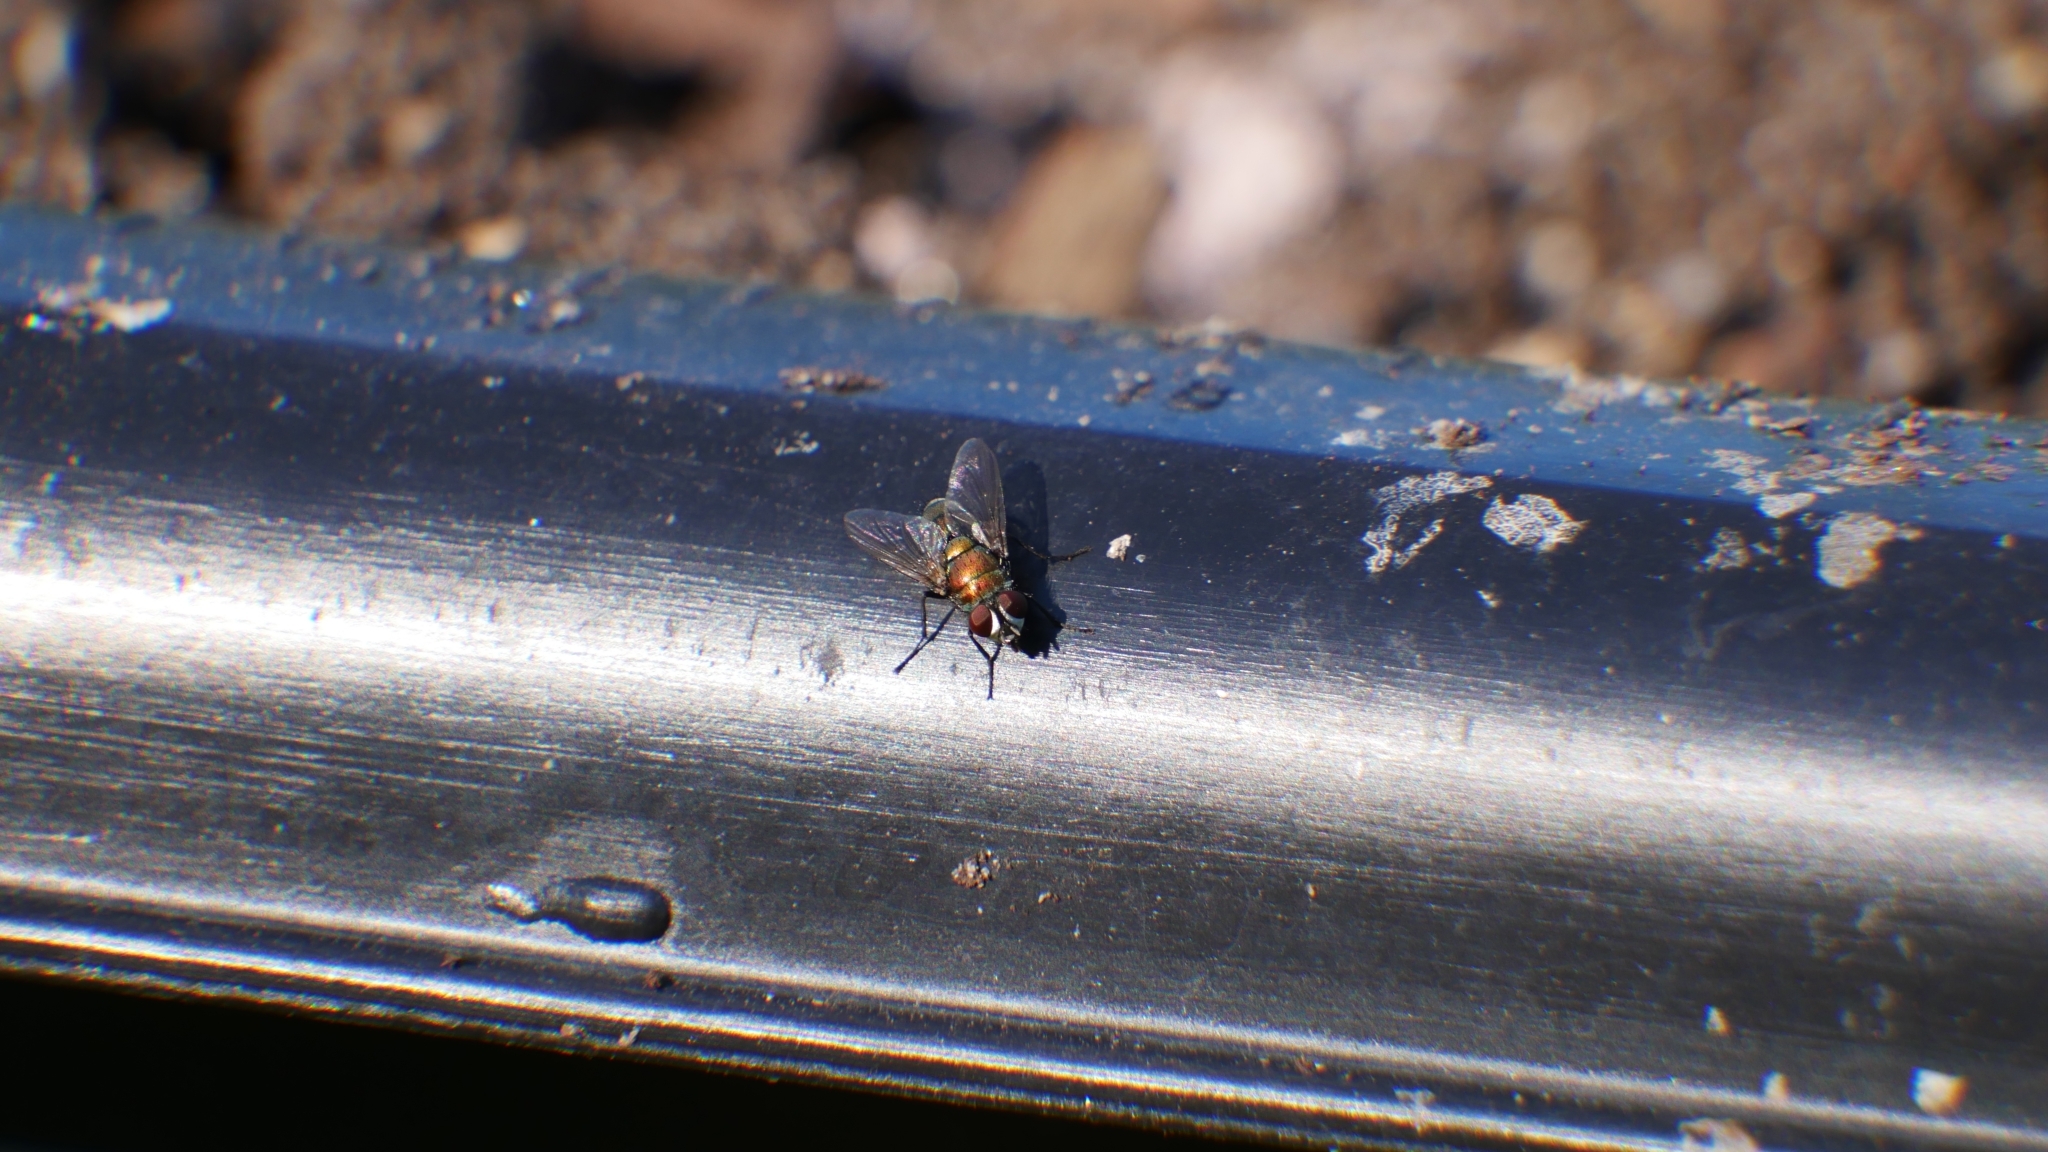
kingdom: Animalia
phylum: Arthropoda
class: Insecta
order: Diptera
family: Calliphoridae
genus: Lucilia
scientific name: Lucilia cuprina
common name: Sheep blow fly
